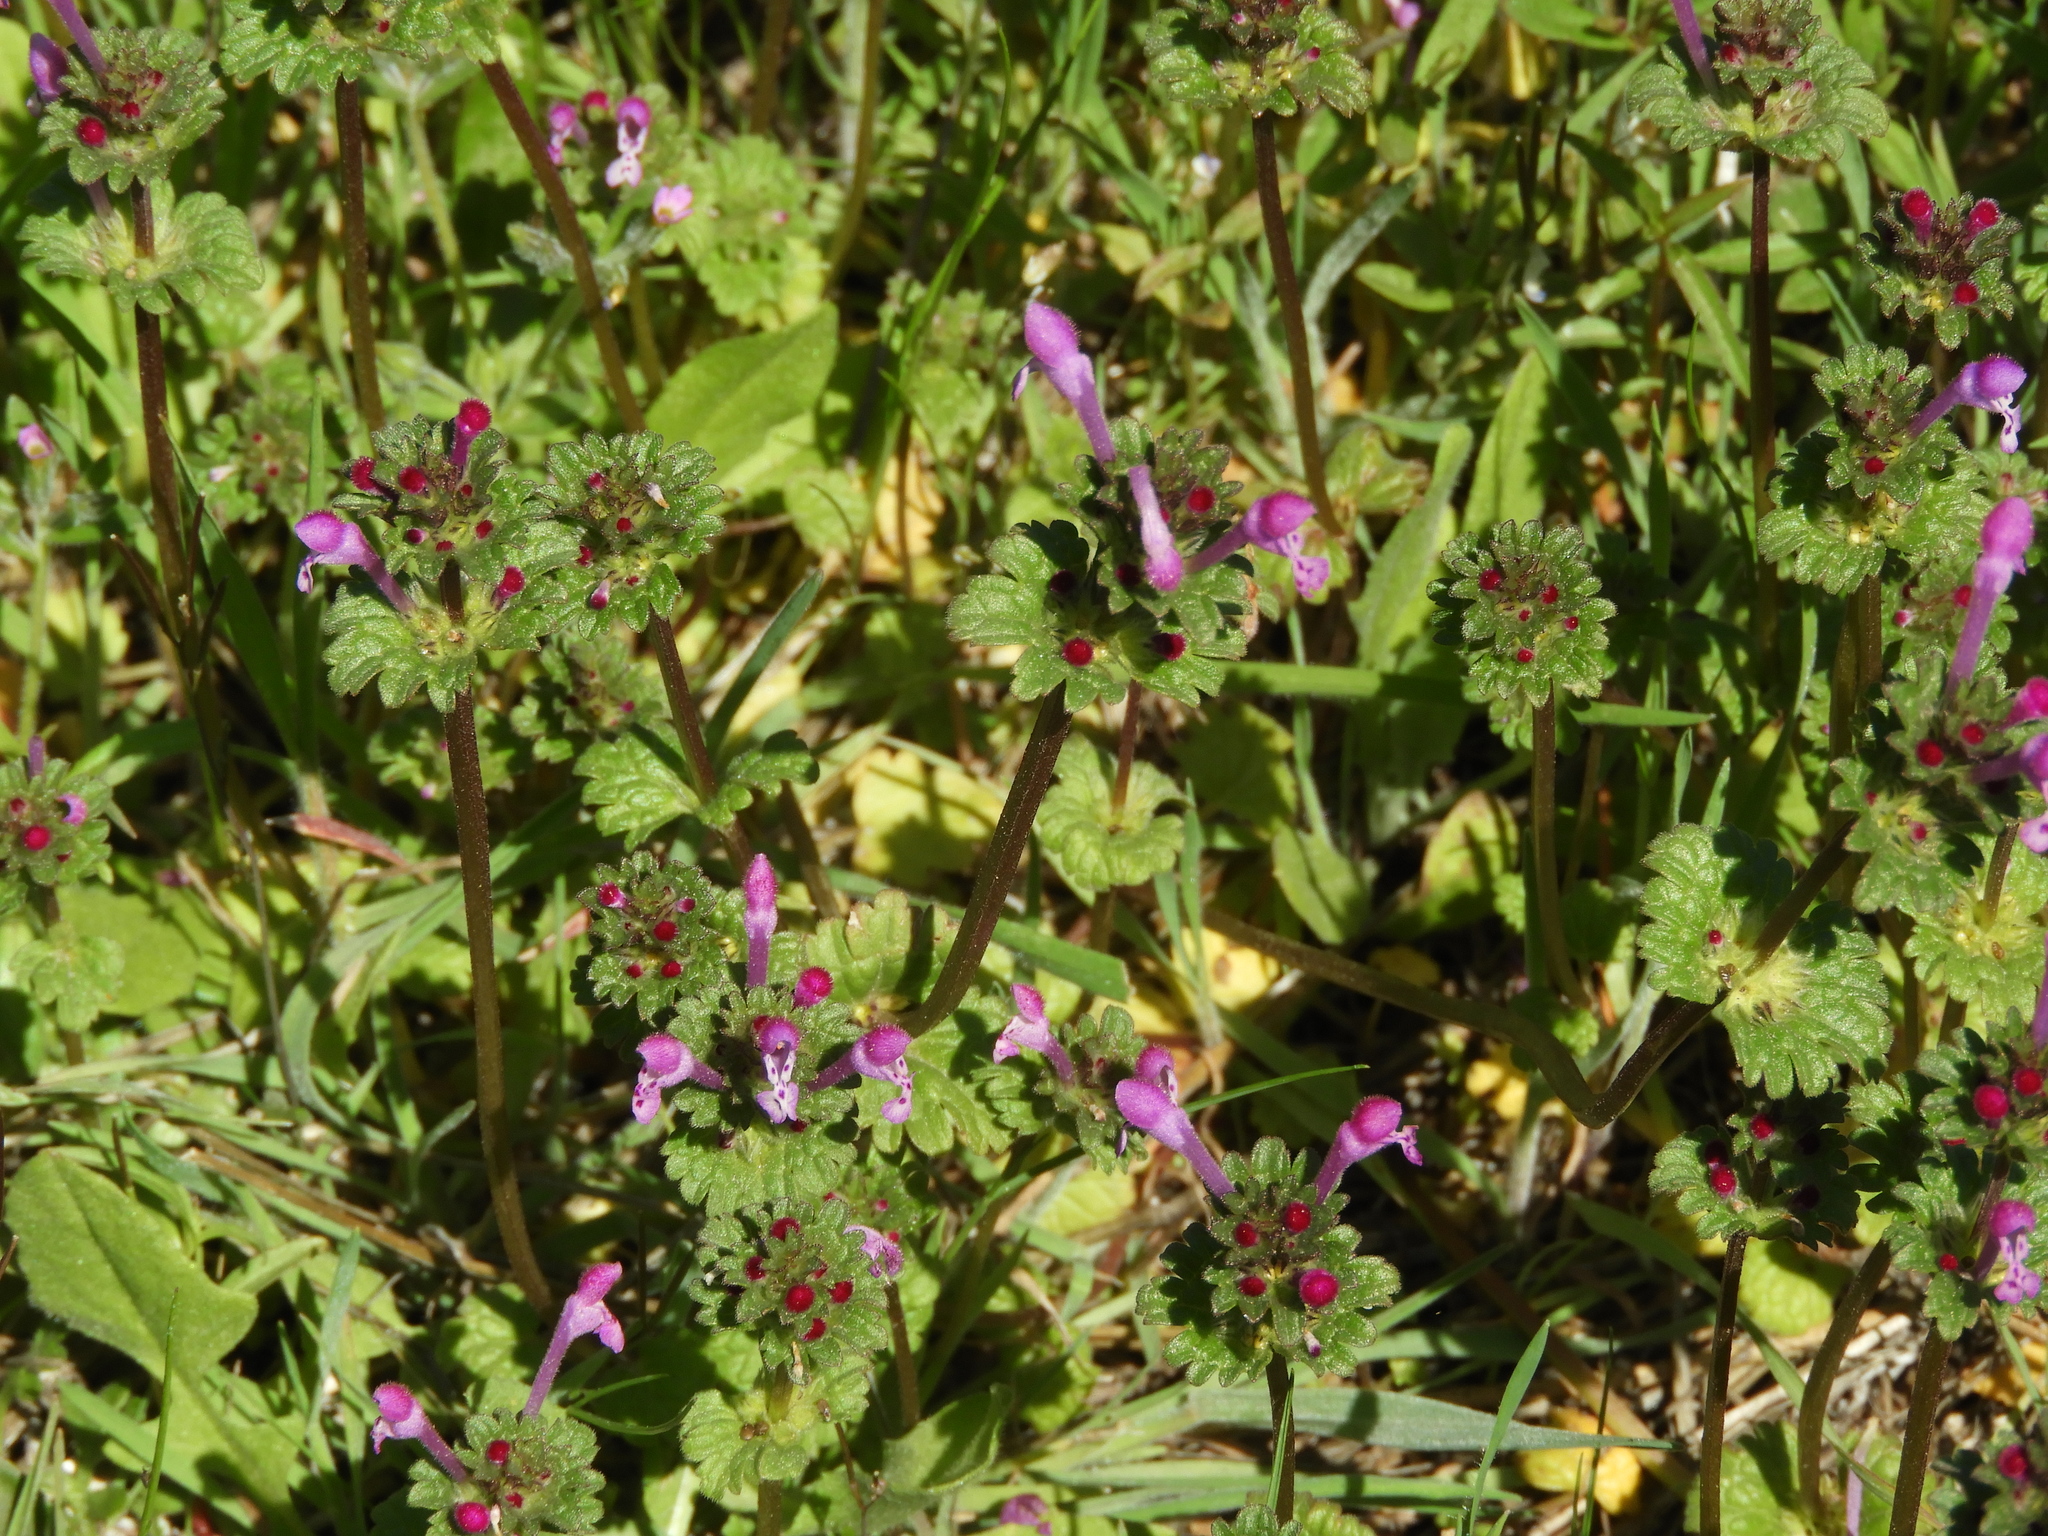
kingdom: Plantae
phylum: Tracheophyta
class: Magnoliopsida
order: Lamiales
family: Lamiaceae
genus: Lamium
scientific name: Lamium amplexicaule
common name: Henbit dead-nettle
